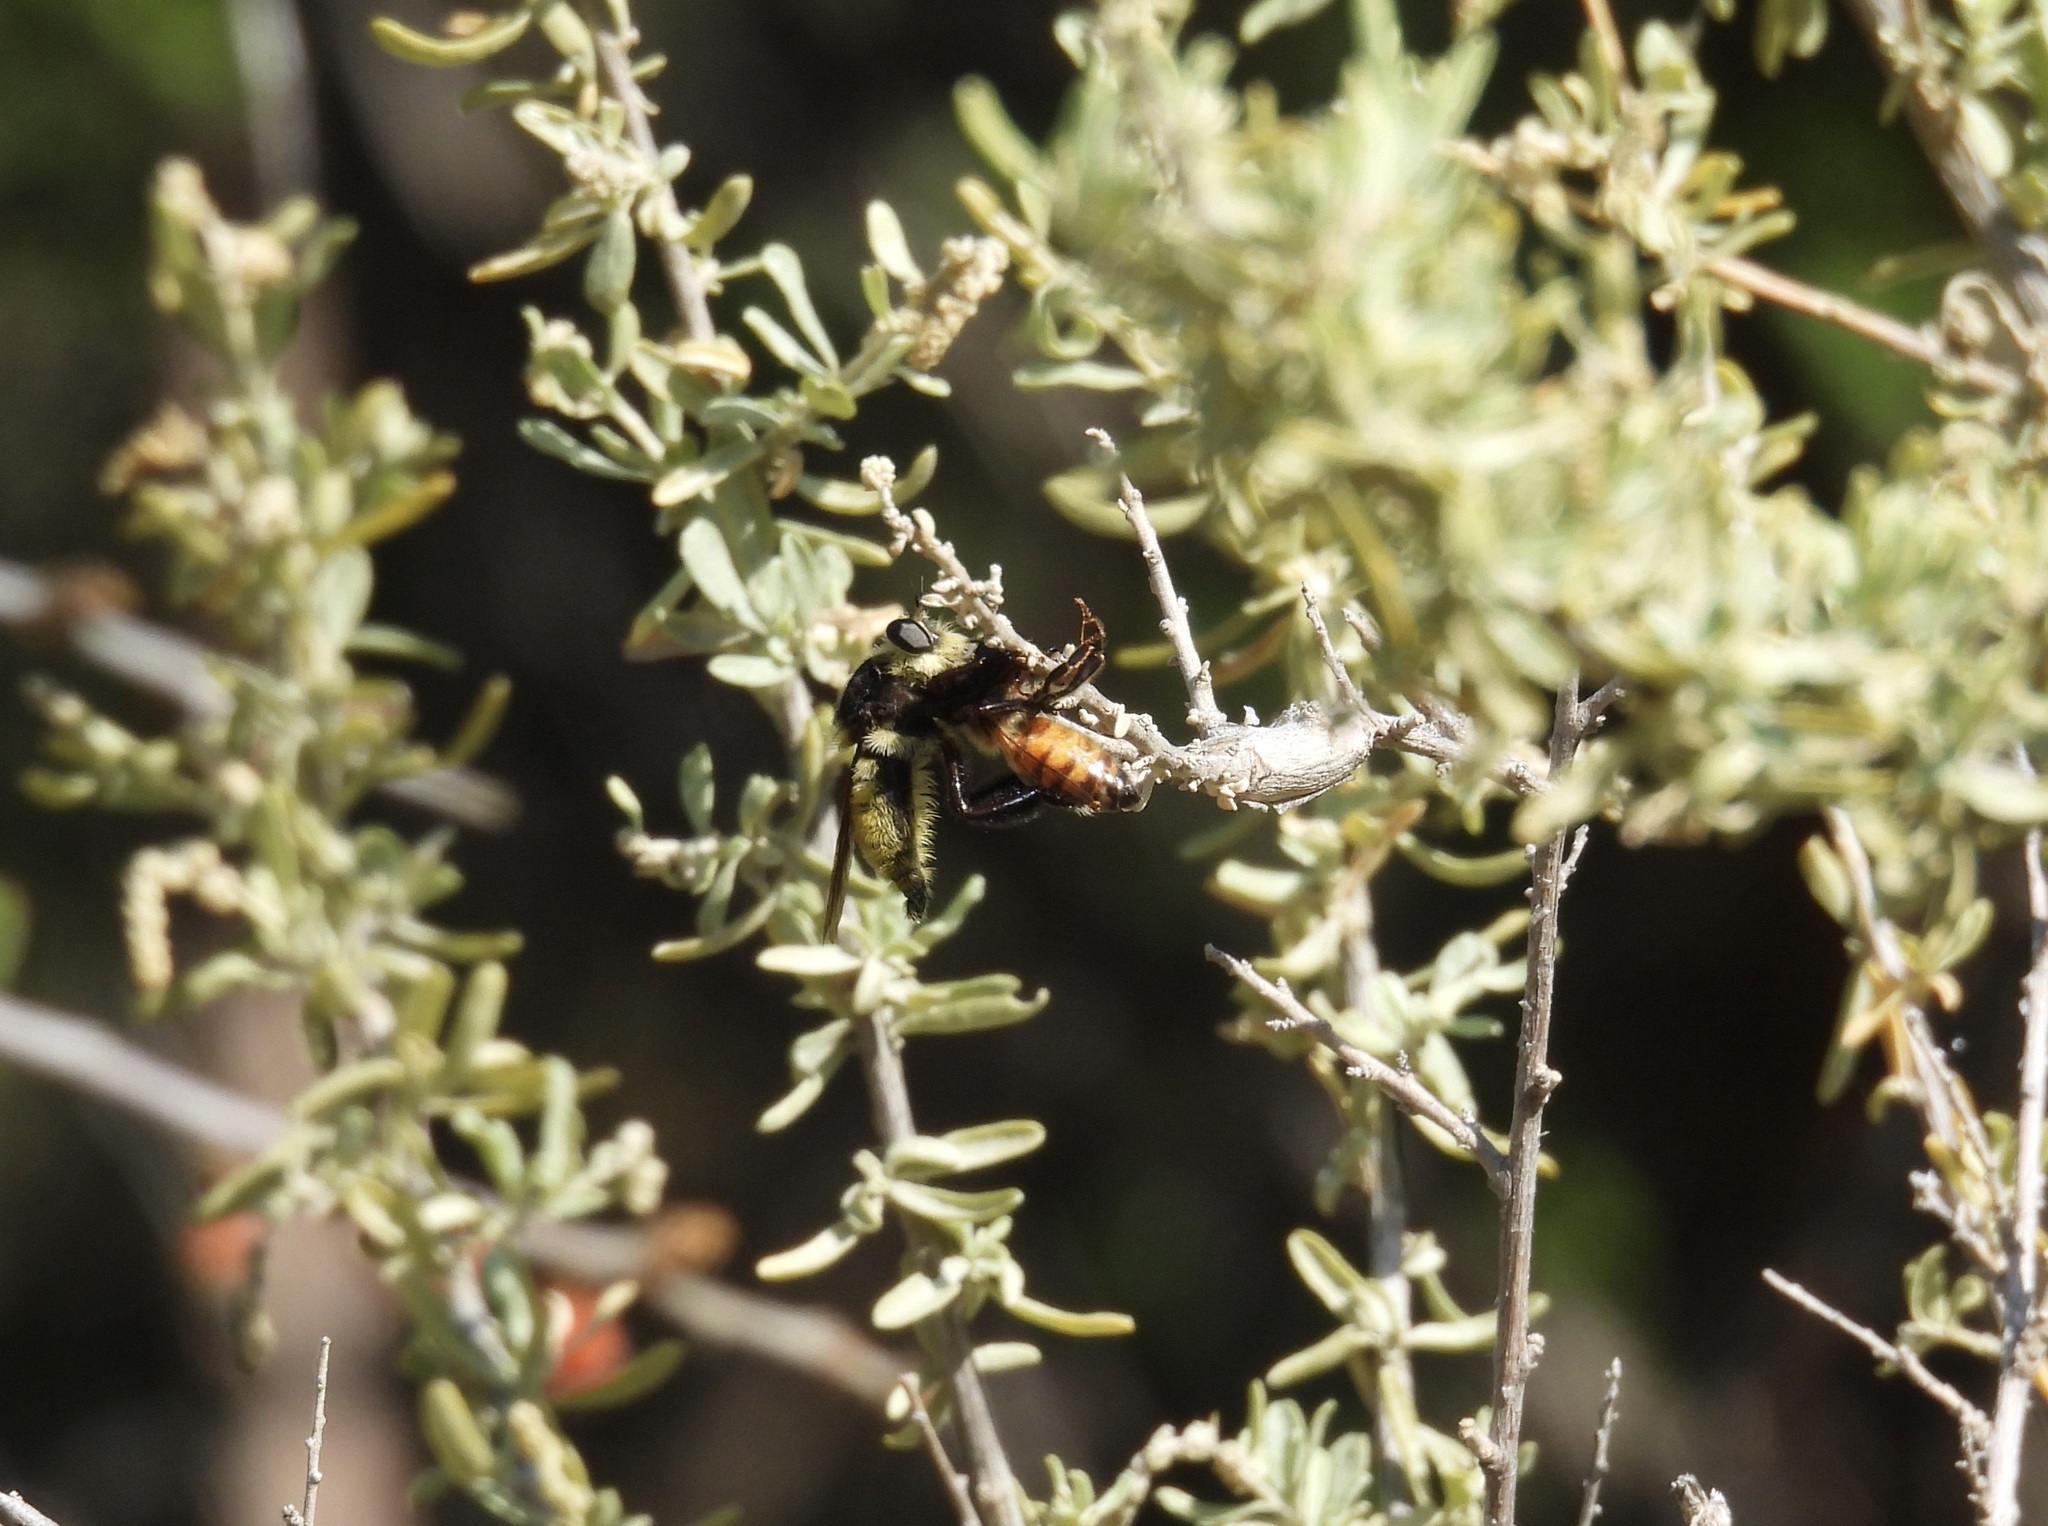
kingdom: Animalia
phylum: Arthropoda
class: Insecta
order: Diptera
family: Asilidae
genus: Mallophora
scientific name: Mallophora fautrix
